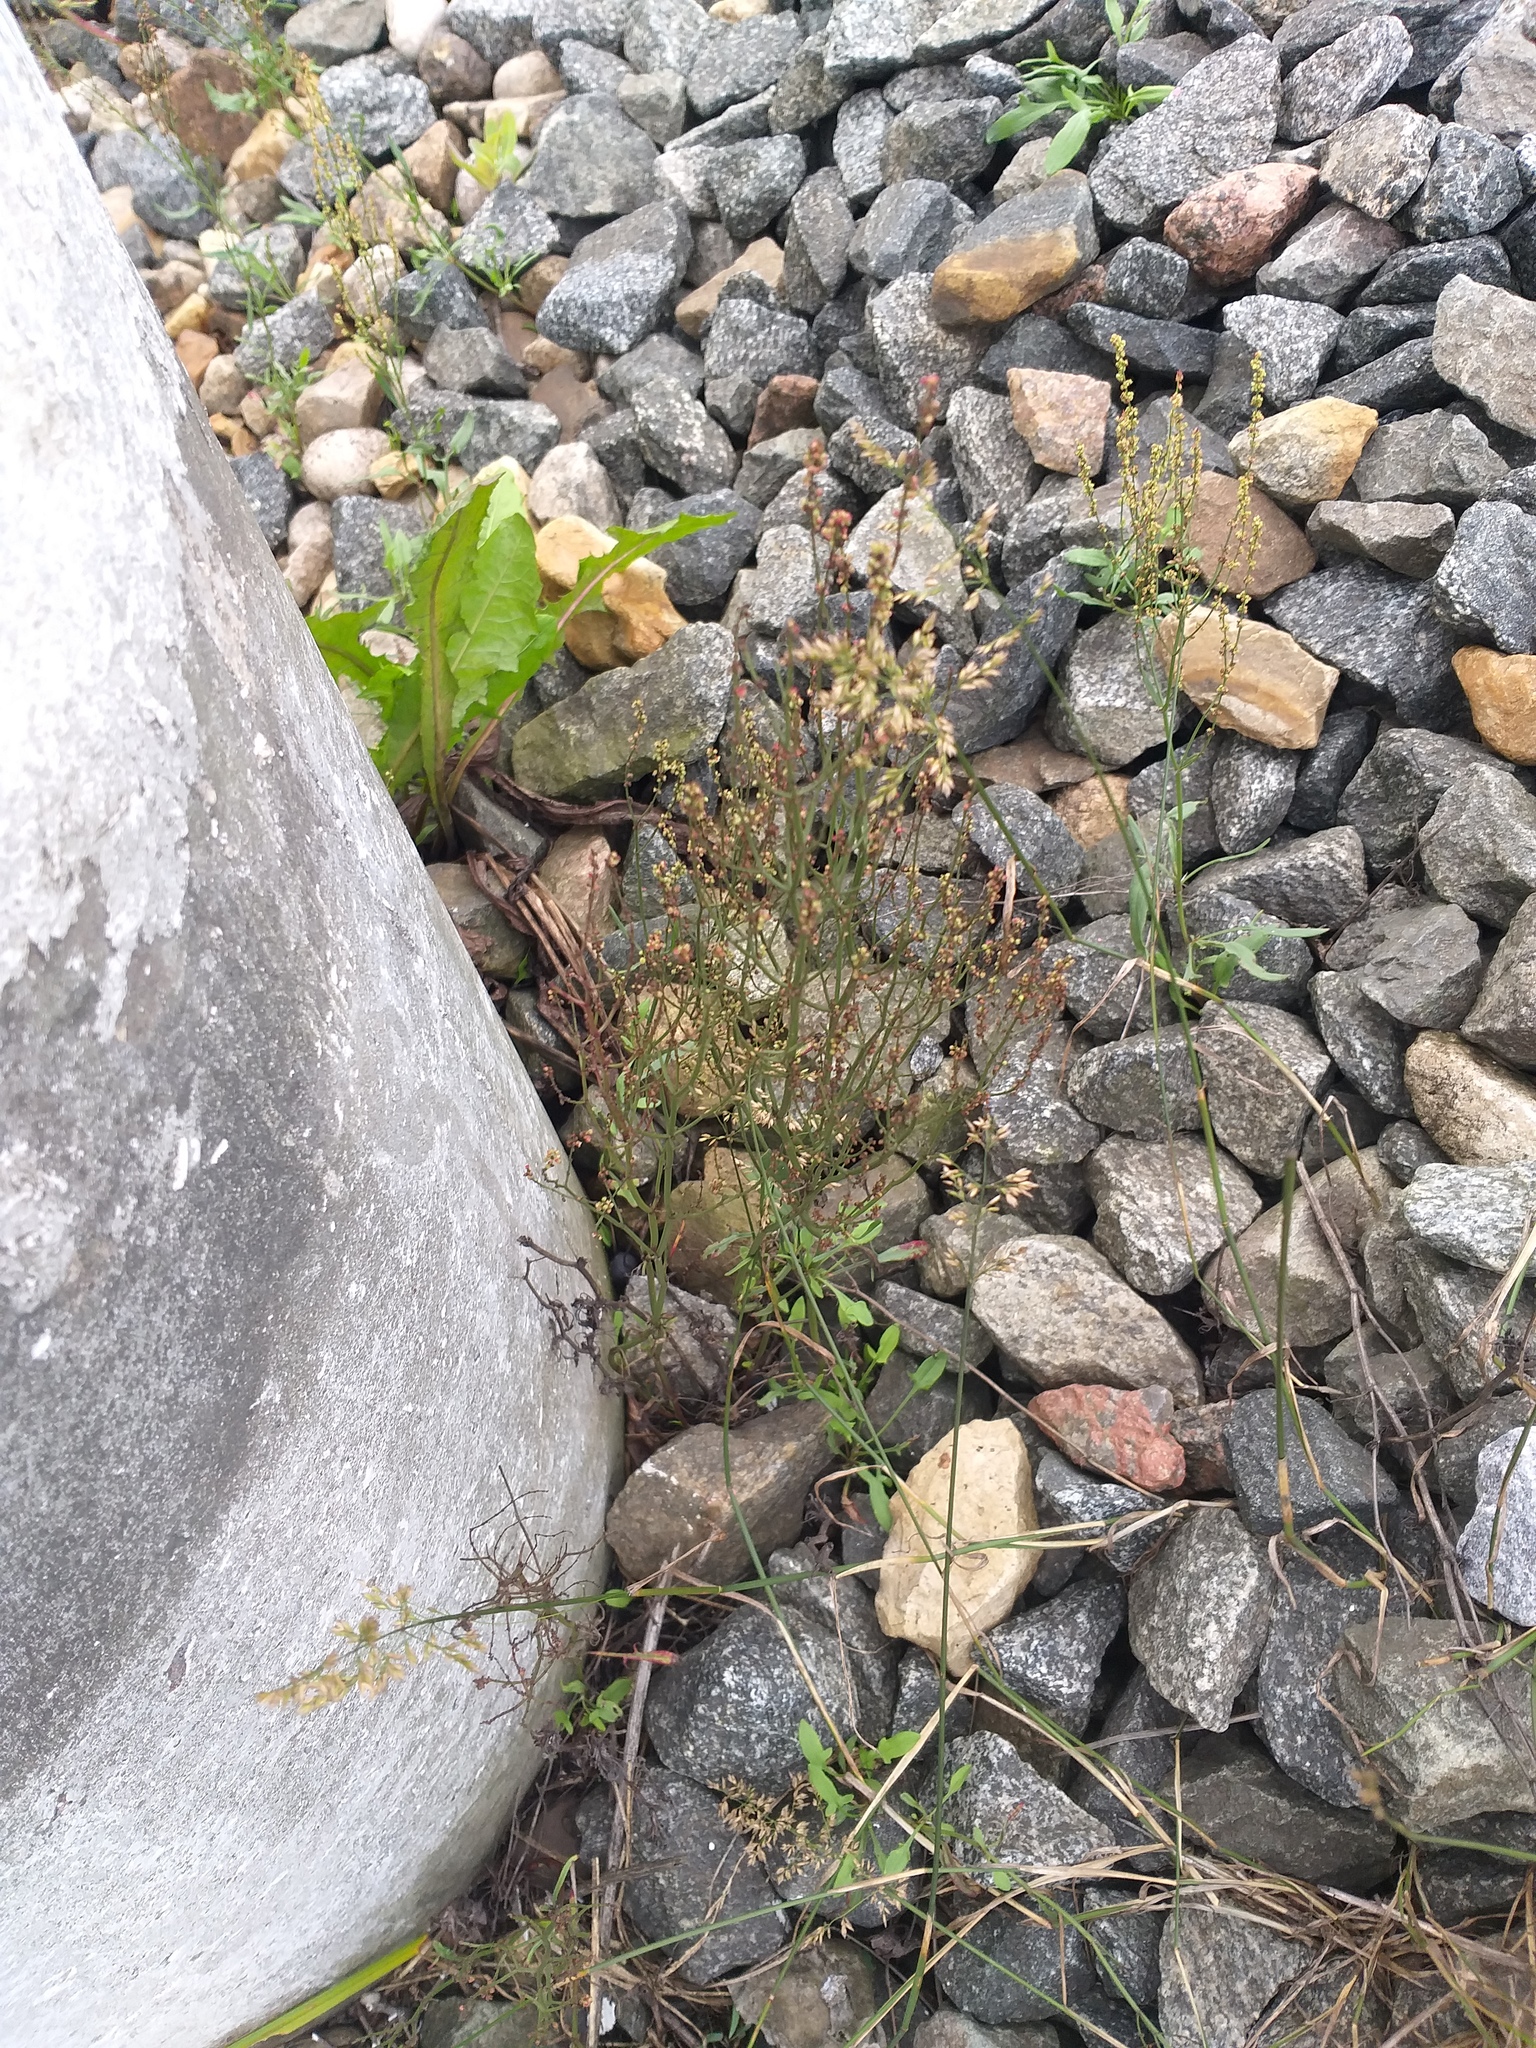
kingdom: Plantae
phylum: Tracheophyta
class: Magnoliopsida
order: Caryophyllales
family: Polygonaceae
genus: Rumex
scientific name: Rumex acetosella
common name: Common sheep sorrel
